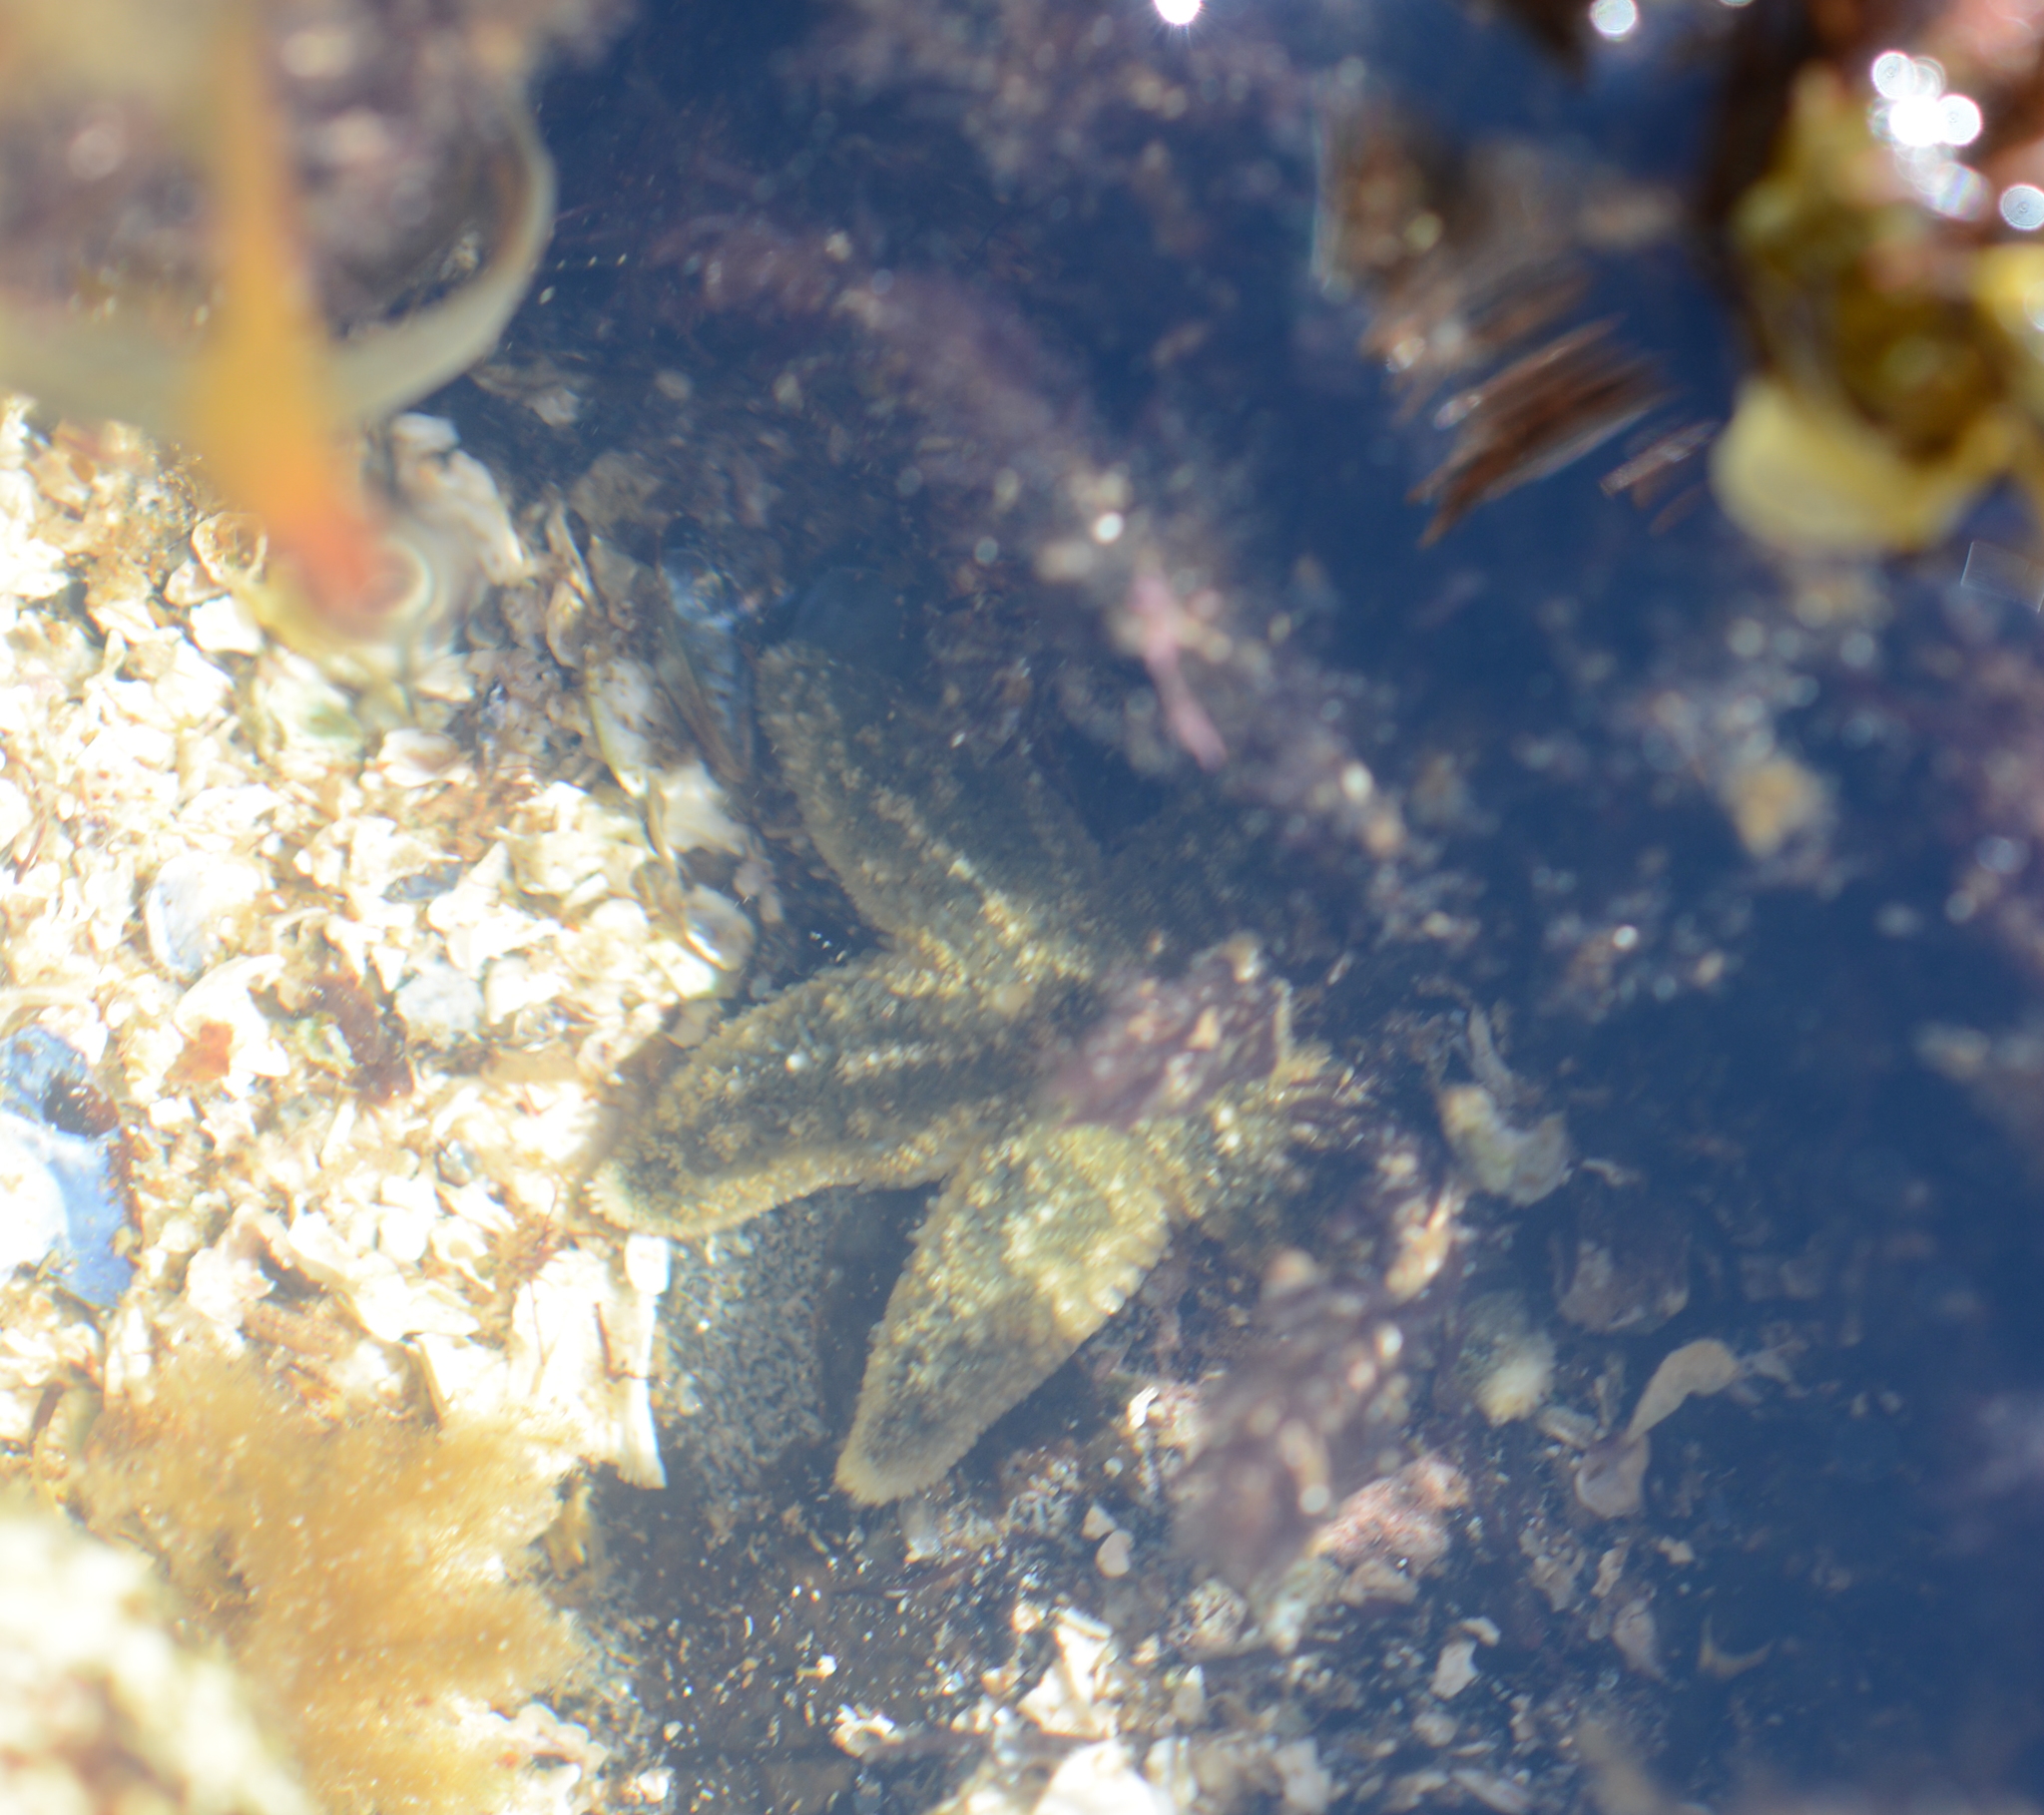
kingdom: Animalia
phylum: Echinodermata
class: Asteroidea
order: Forcipulatida
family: Asteriidae
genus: Evasterias
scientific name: Evasterias troschelii
